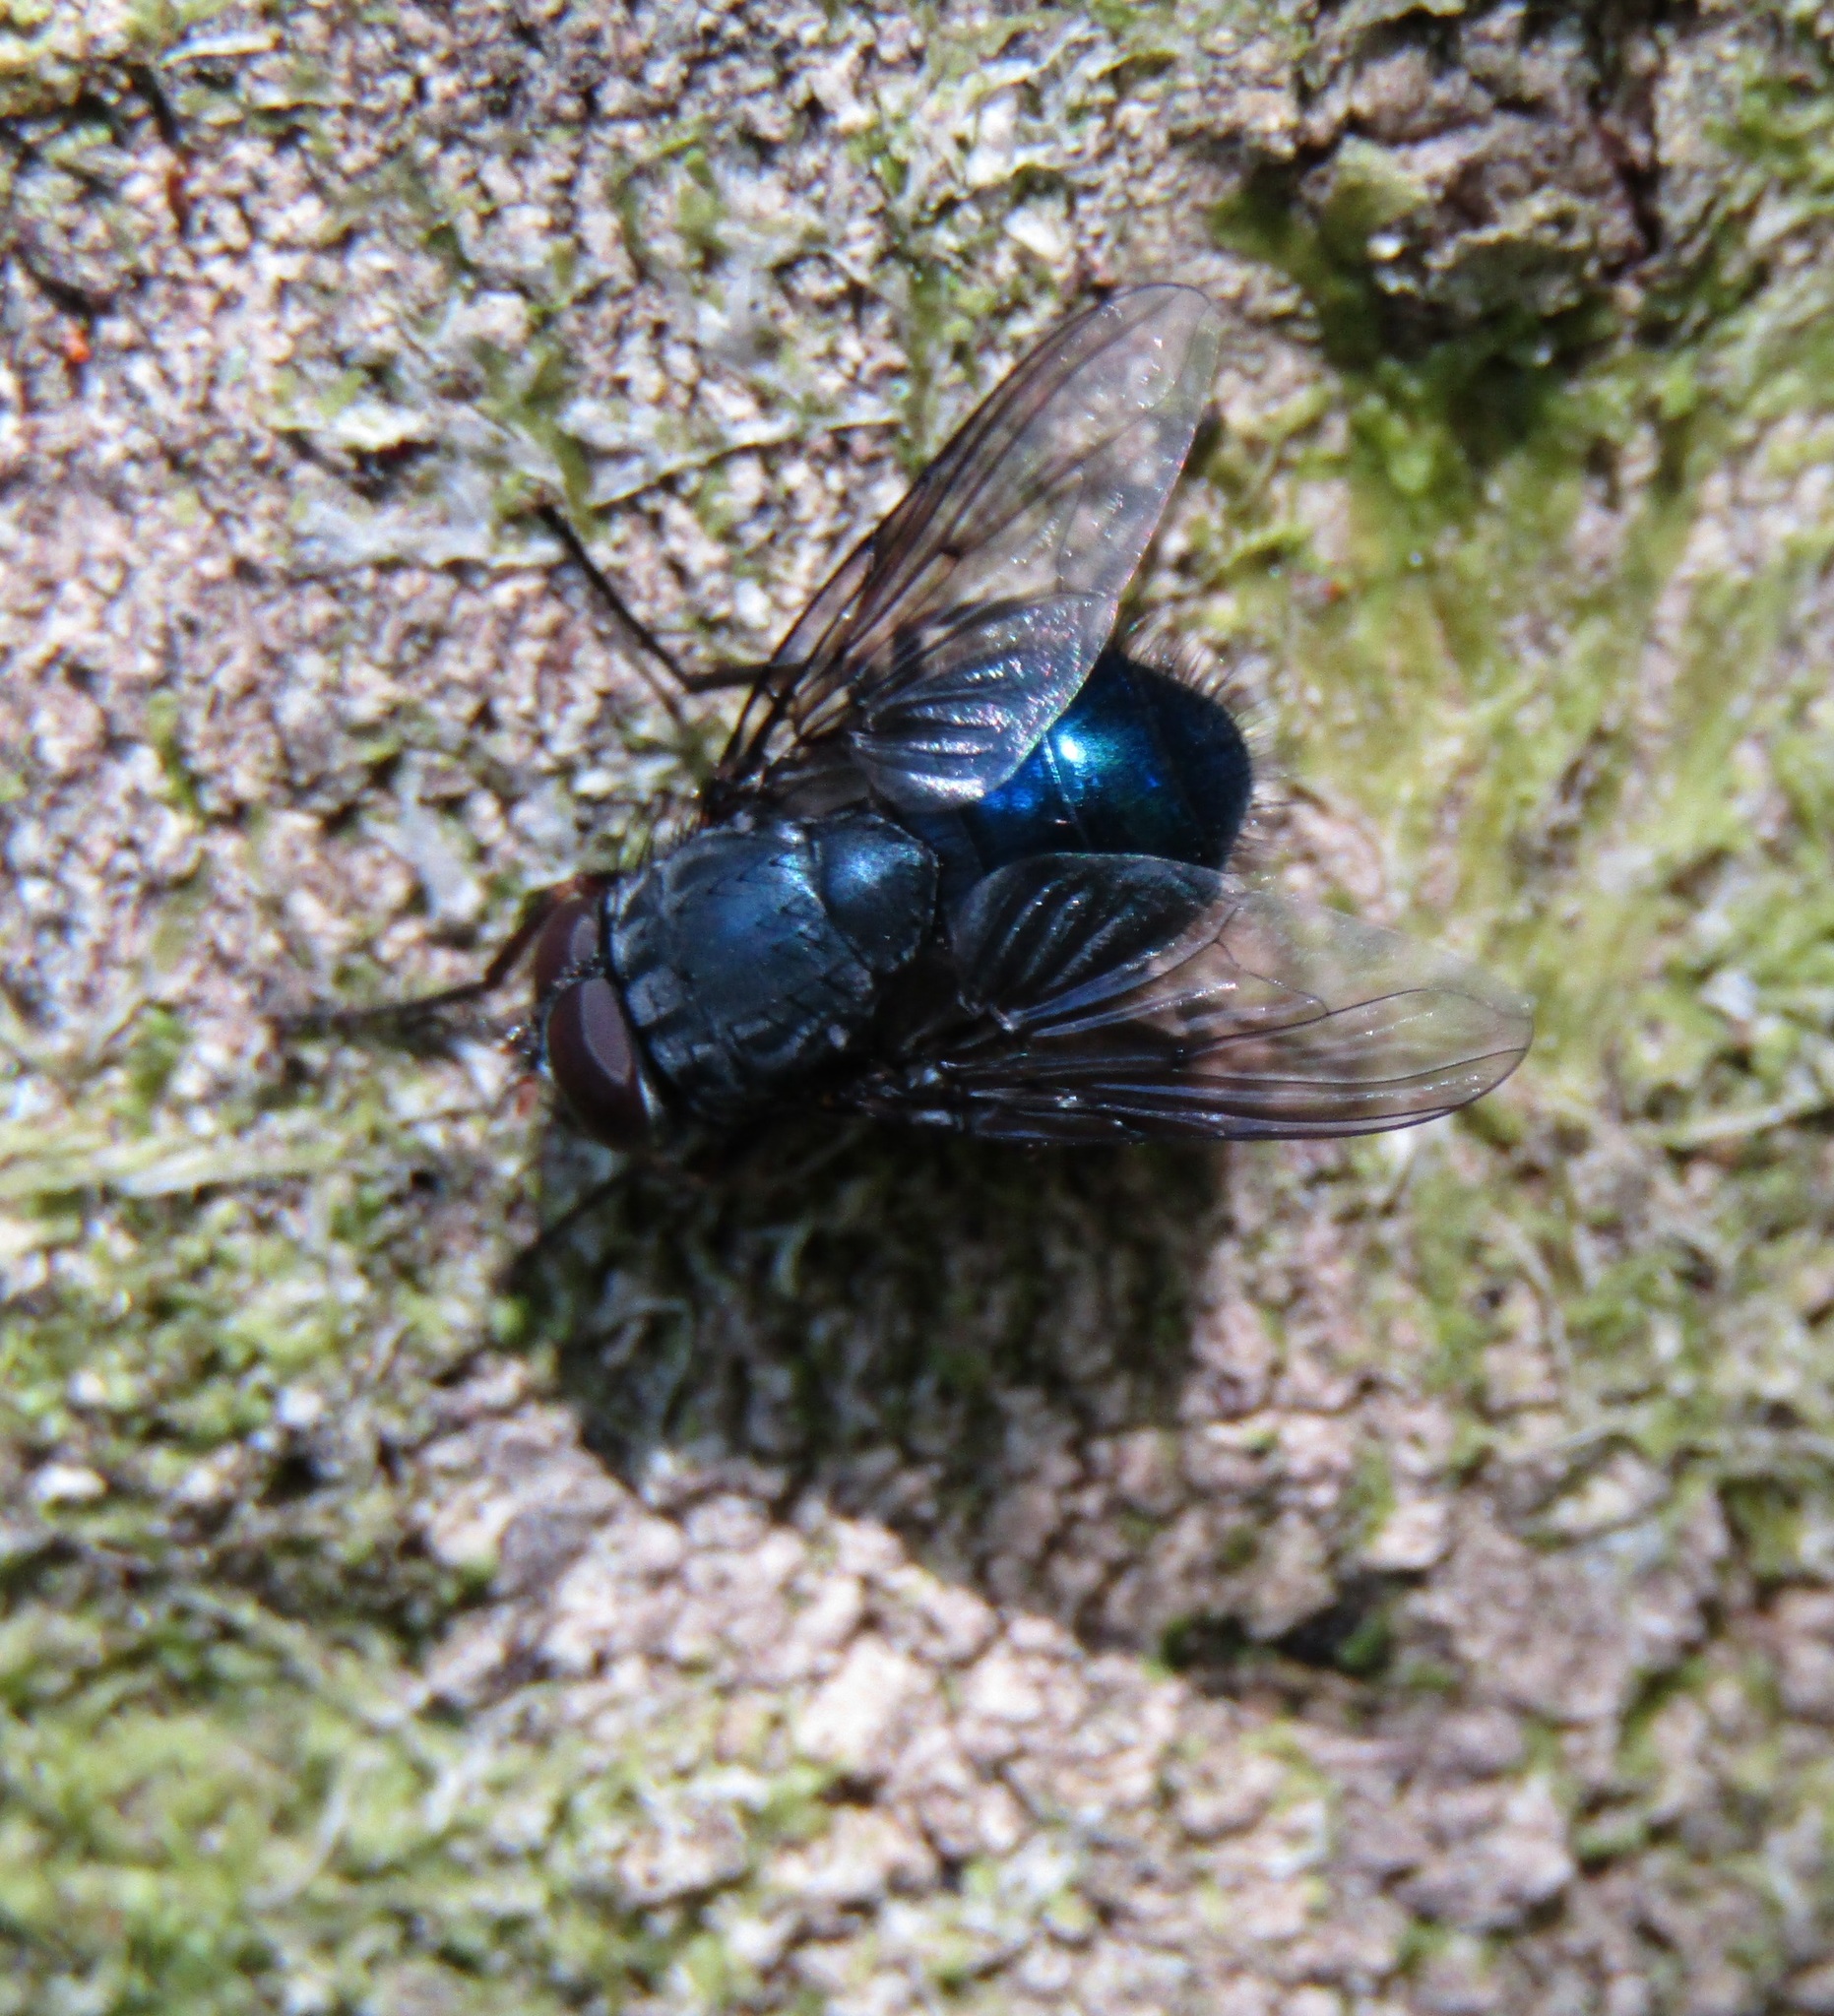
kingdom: Animalia
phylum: Arthropoda
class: Insecta
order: Diptera
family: Muscidae
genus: Calliphoroides
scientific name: Calliphoroides antennatis
